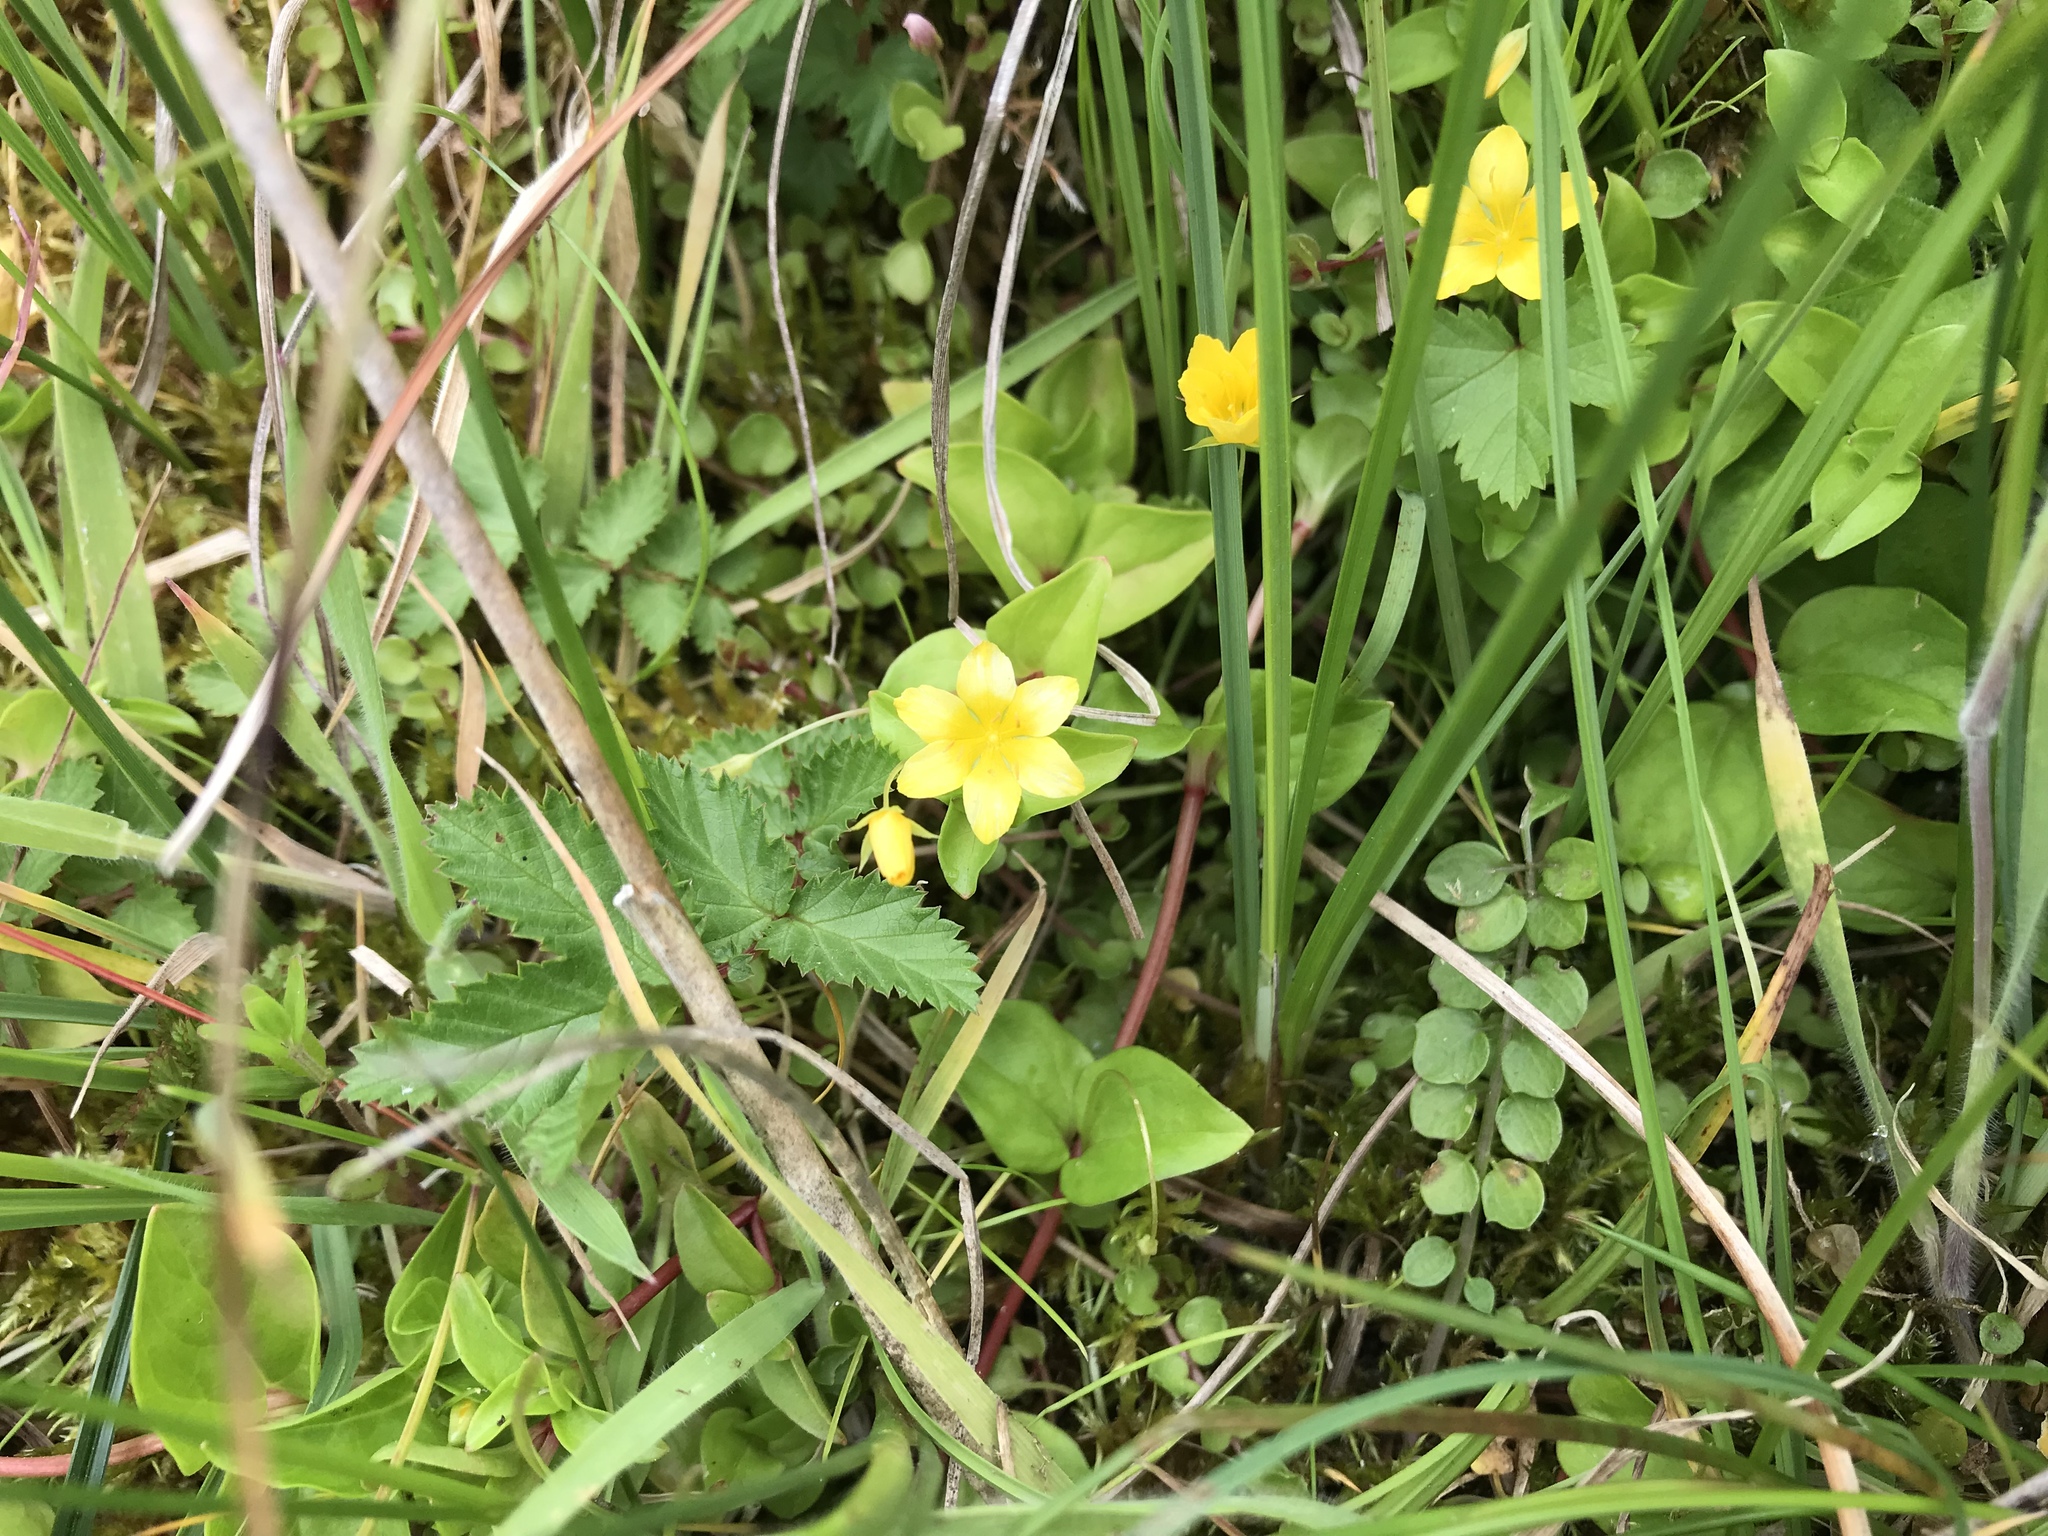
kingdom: Plantae
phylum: Tracheophyta
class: Magnoliopsida
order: Ericales
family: Primulaceae
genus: Lysimachia
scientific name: Lysimachia nemorum
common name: Yellow pimpernel
